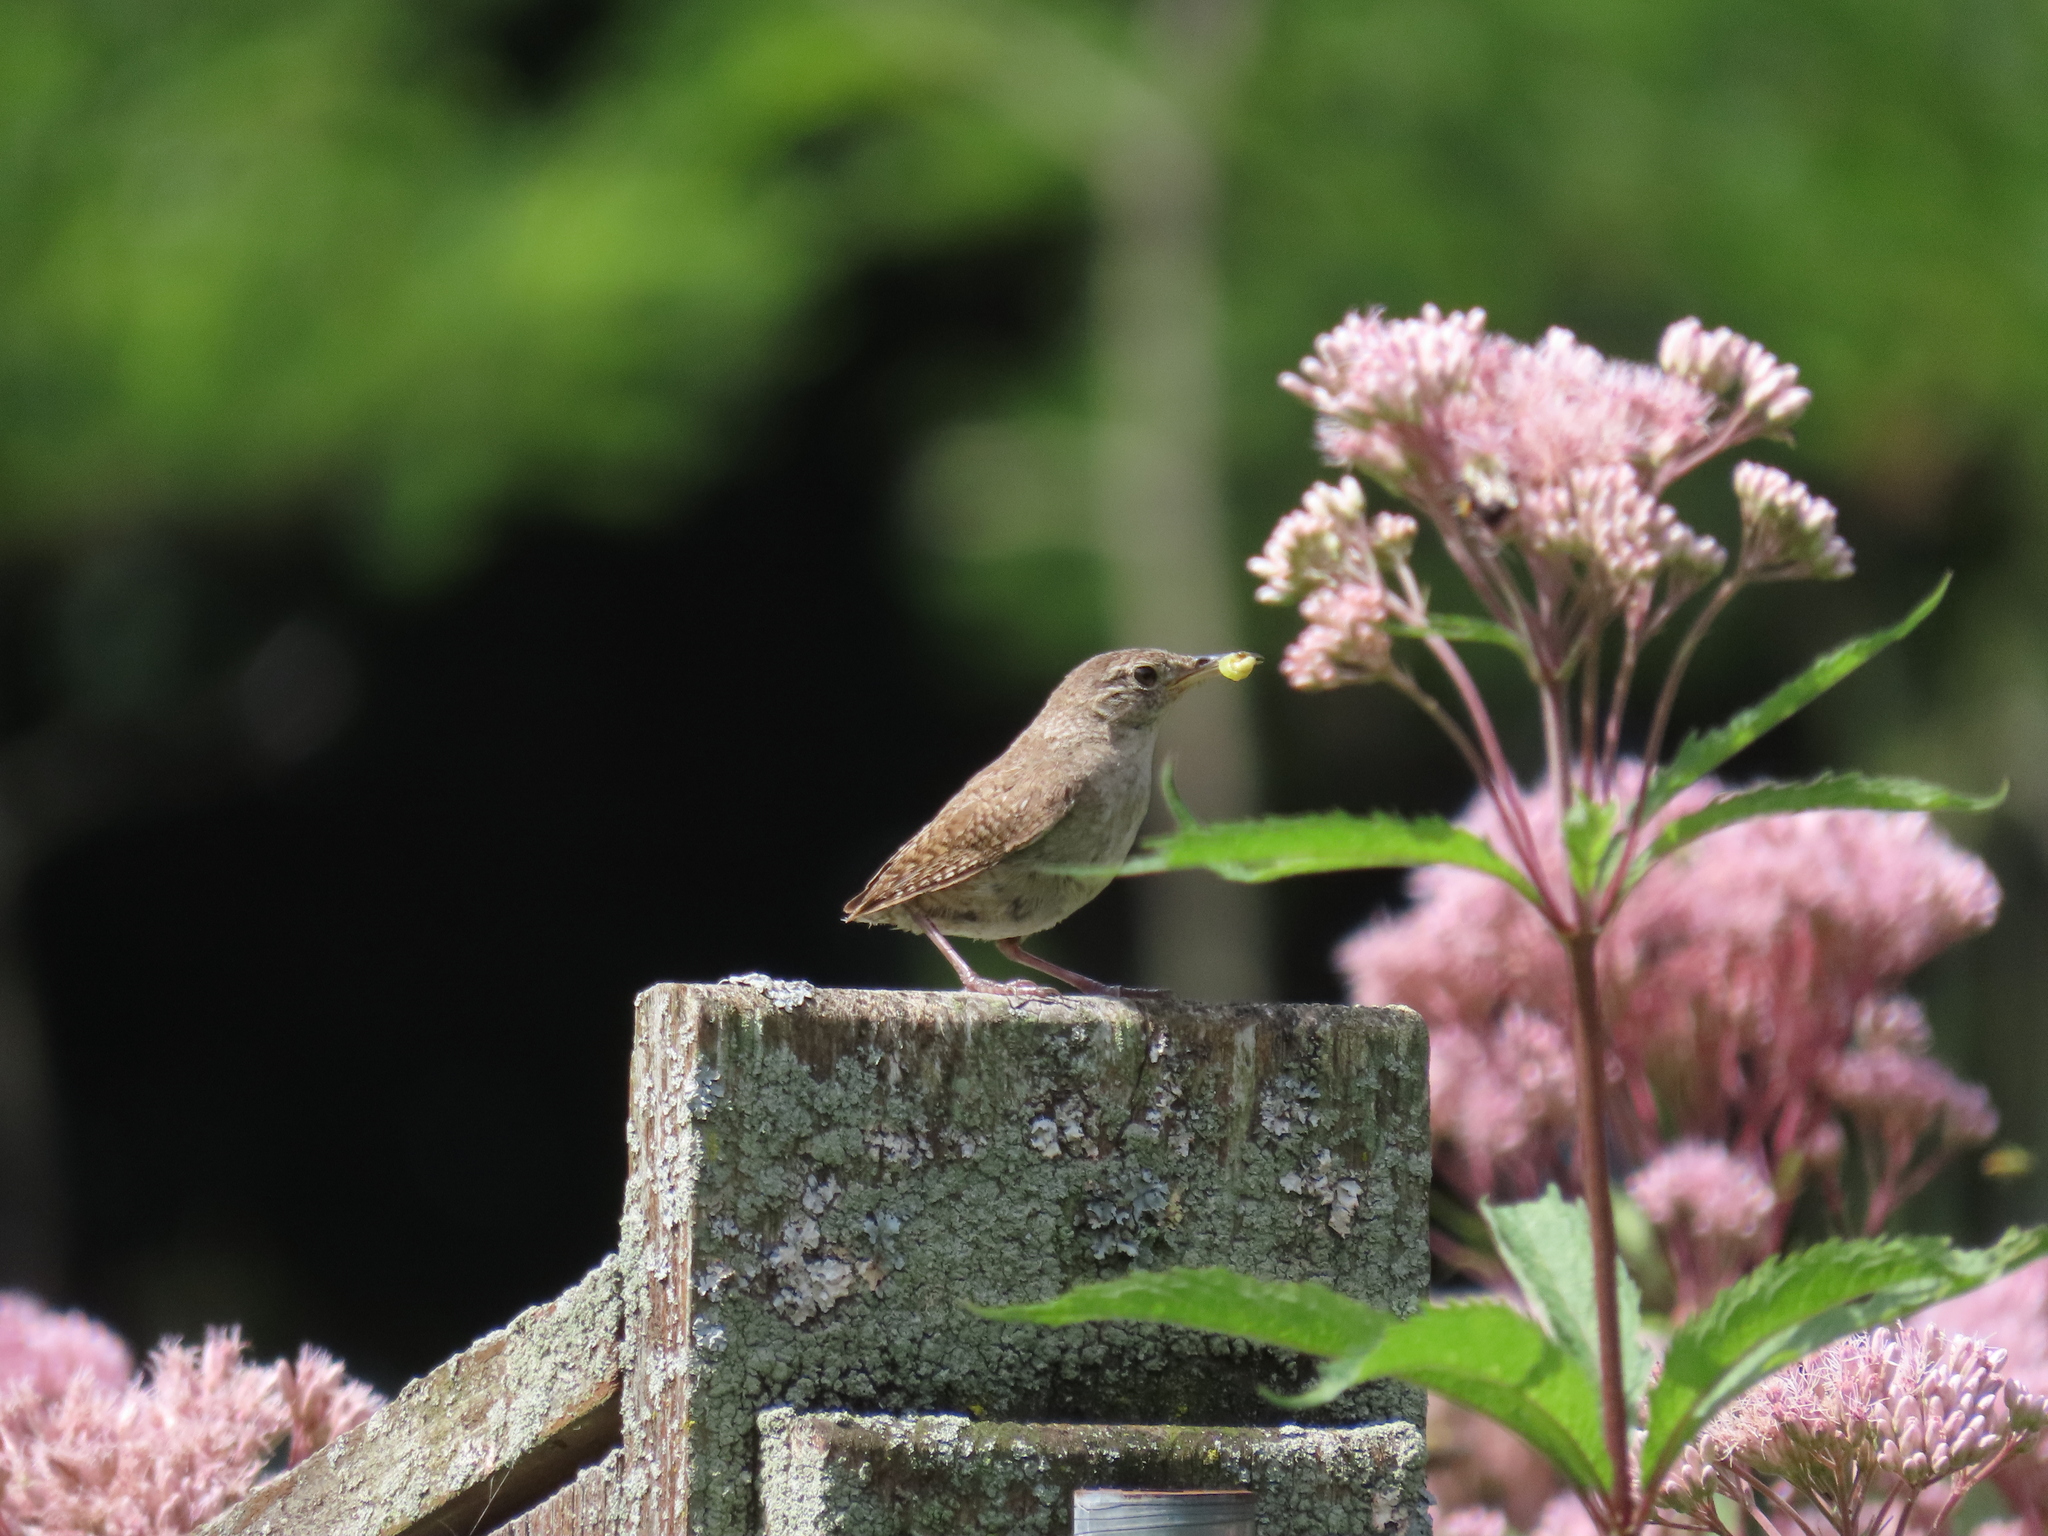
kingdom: Animalia
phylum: Chordata
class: Aves
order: Passeriformes
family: Troglodytidae
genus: Troglodytes
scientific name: Troglodytes aedon
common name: House wren
